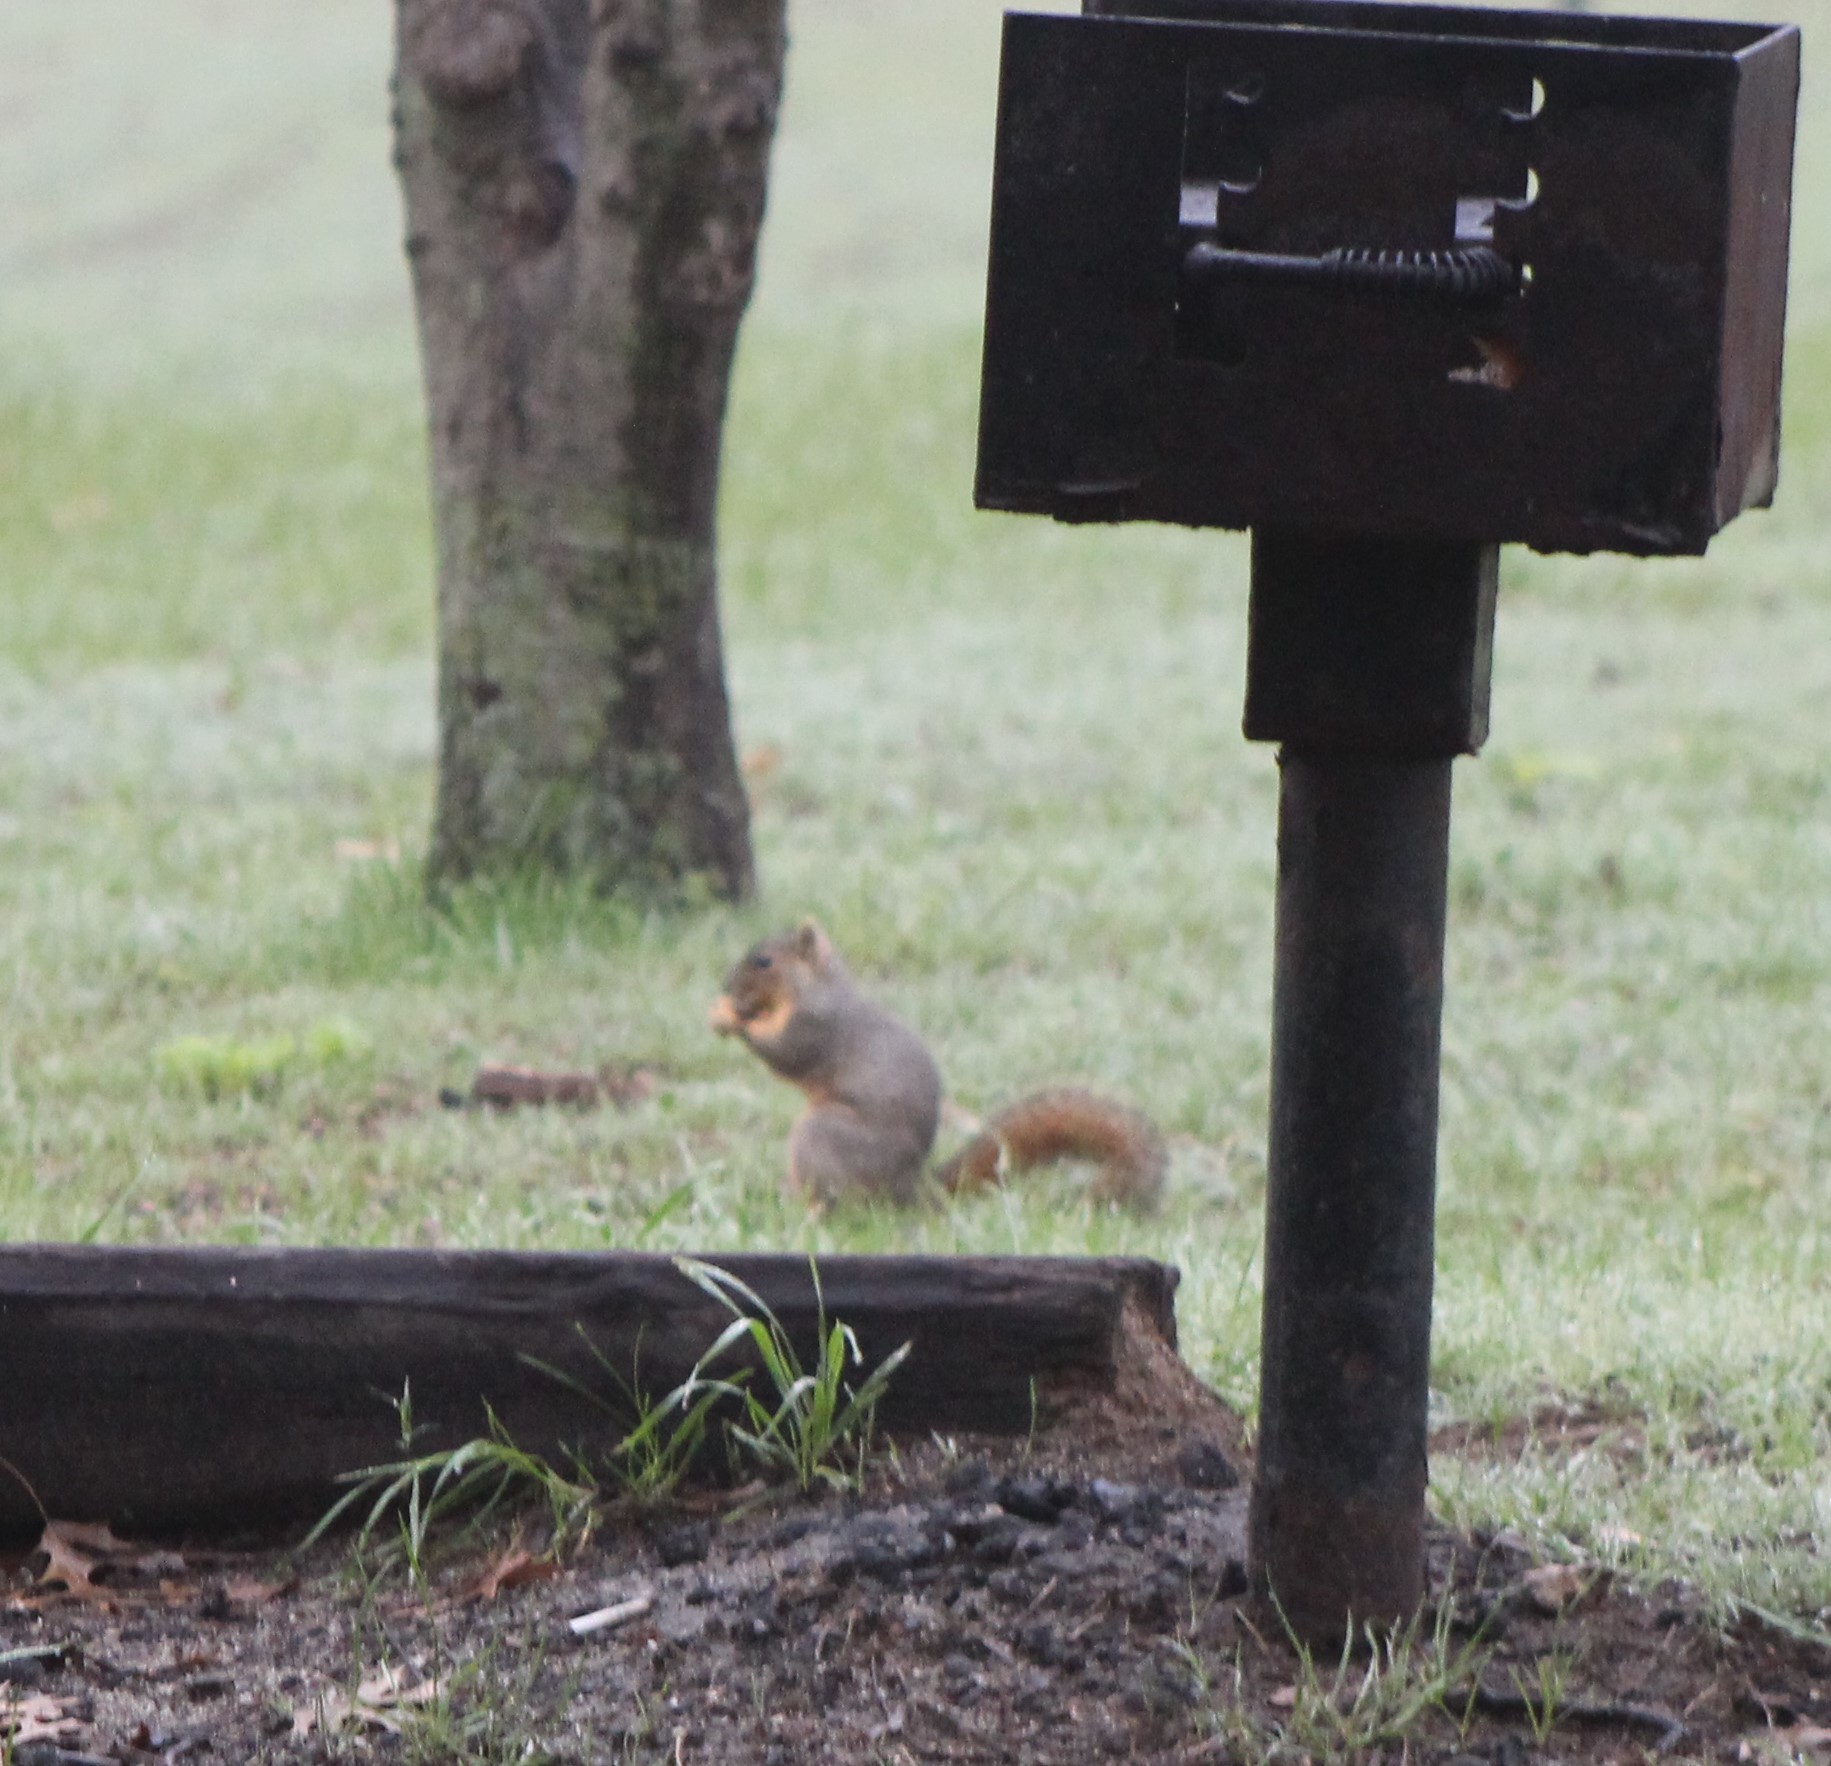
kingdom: Animalia
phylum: Chordata
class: Mammalia
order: Rodentia
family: Sciuridae
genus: Sciurus
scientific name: Sciurus niger
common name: Fox squirrel
